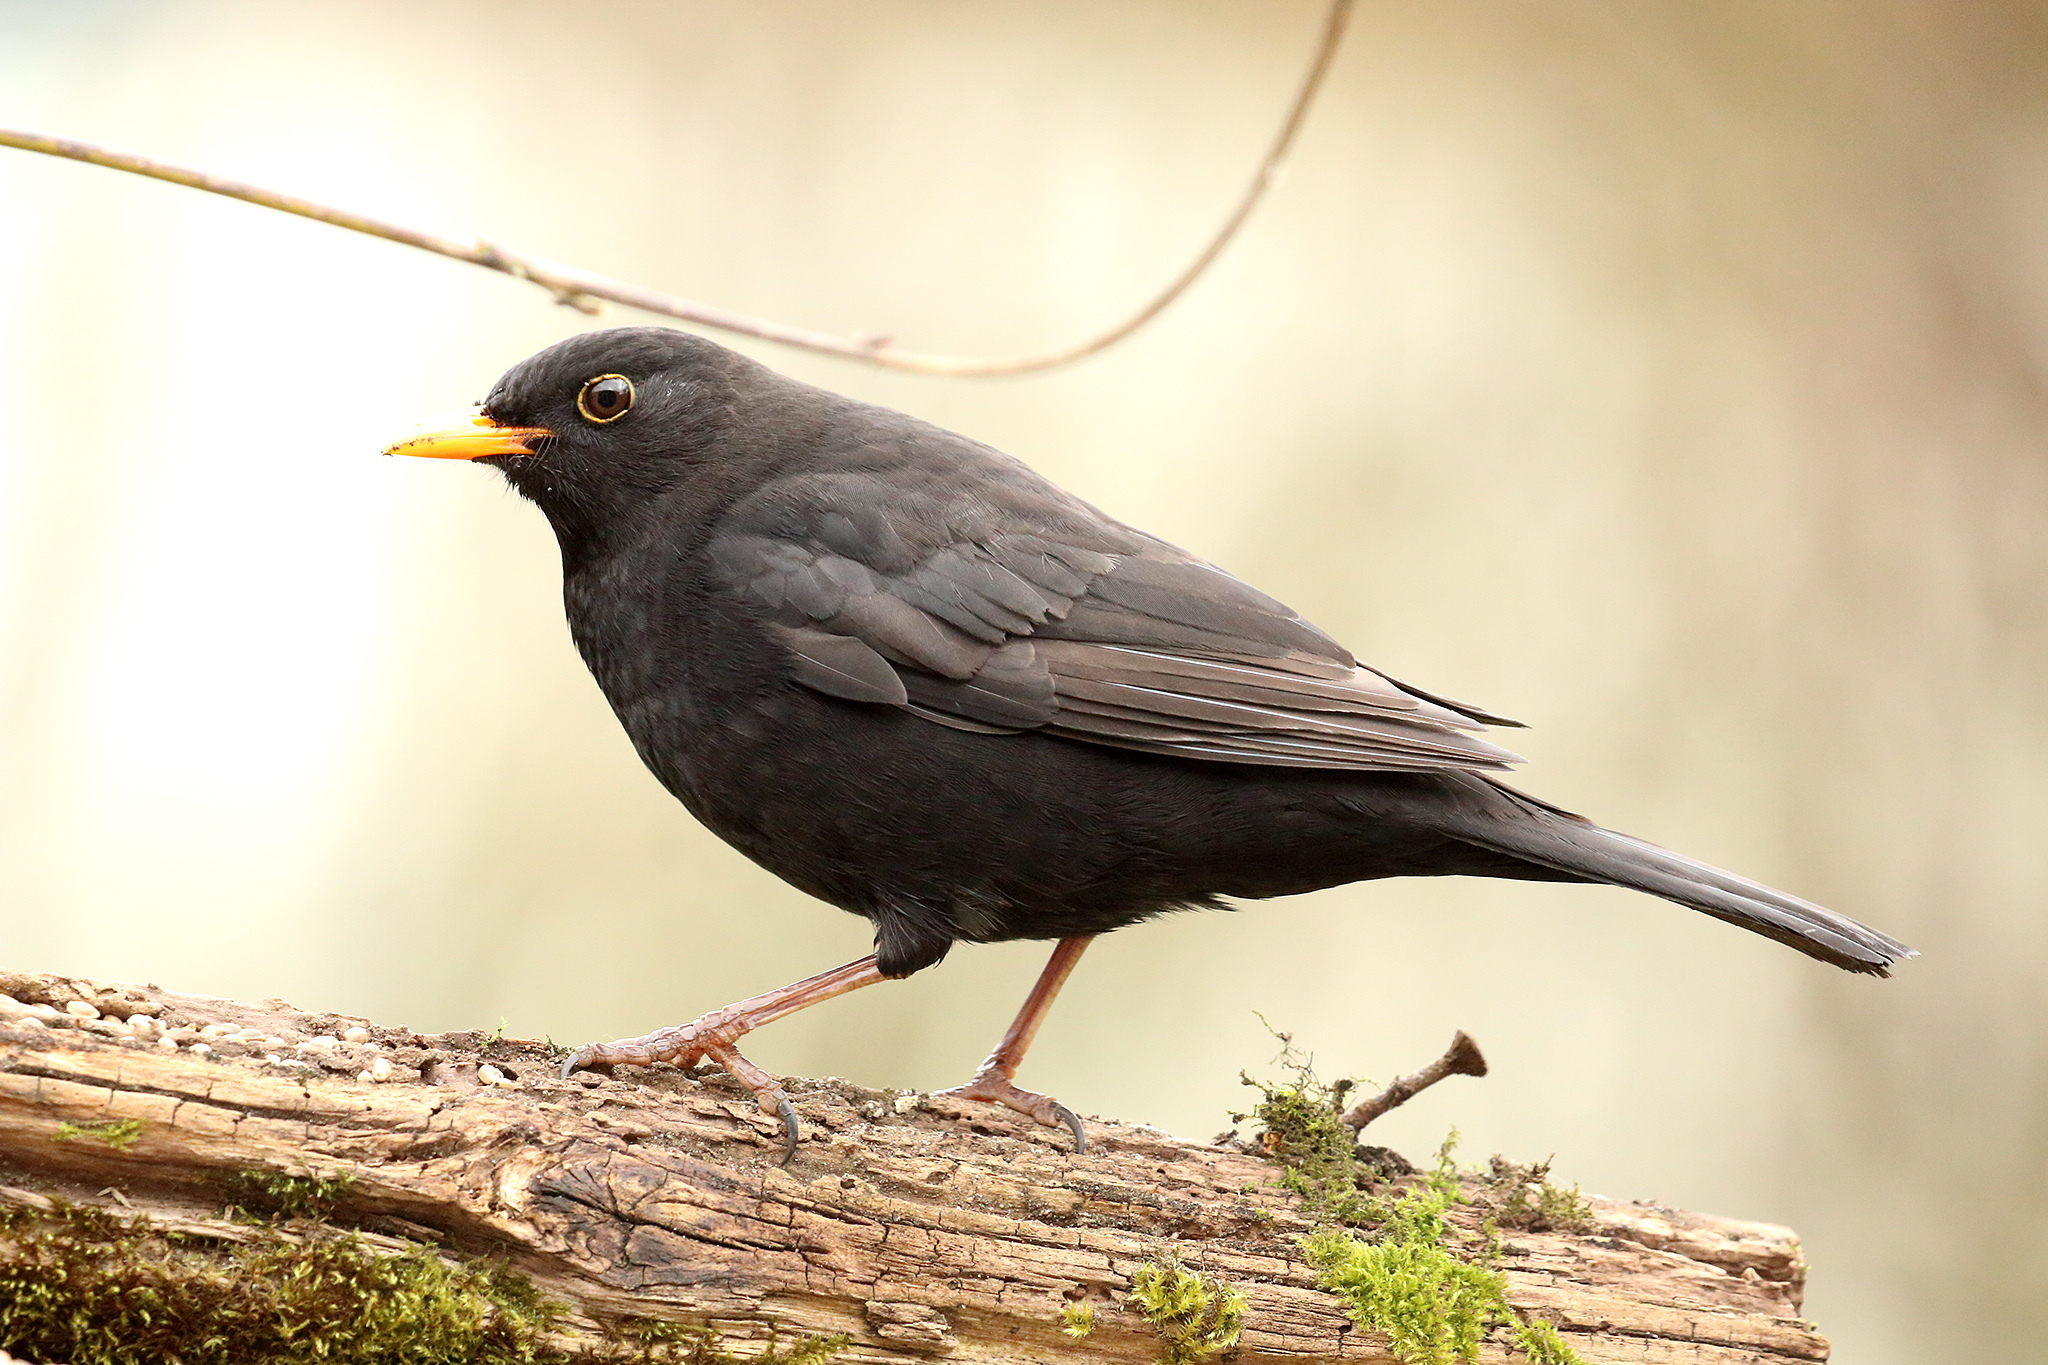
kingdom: Animalia
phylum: Chordata
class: Aves
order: Passeriformes
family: Turdidae
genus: Turdus
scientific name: Turdus merula
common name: Common blackbird
